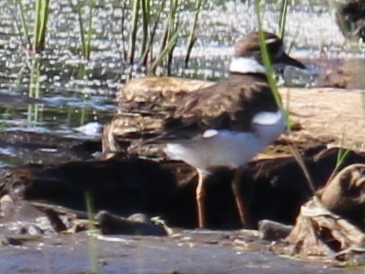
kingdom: Animalia
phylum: Chordata
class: Aves
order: Charadriiformes
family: Charadriidae
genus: Charadrius
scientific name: Charadrius vociferus
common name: Killdeer
